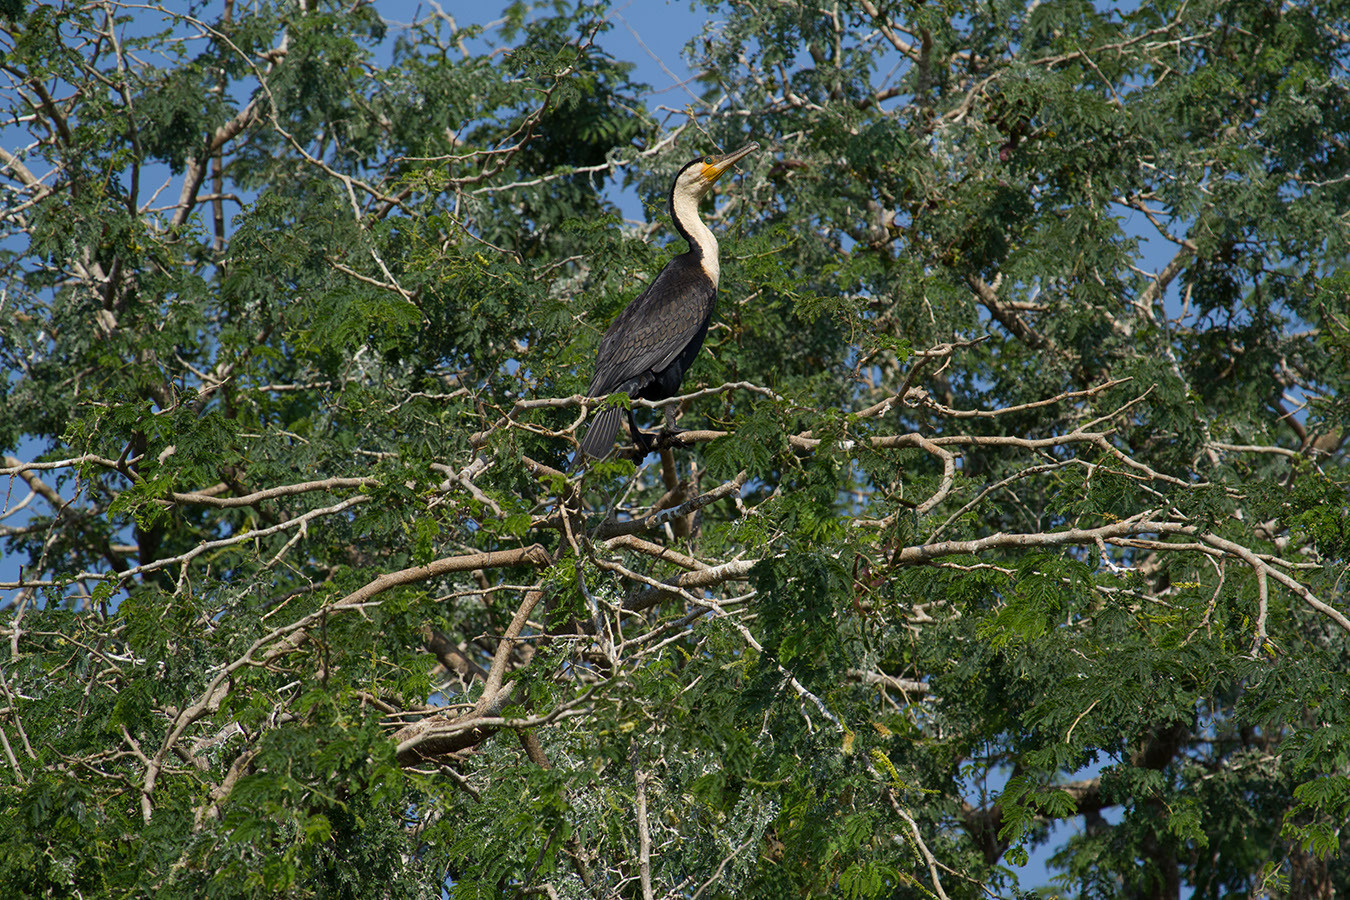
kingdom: Animalia
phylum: Chordata
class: Aves
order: Suliformes
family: Phalacrocoracidae
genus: Phalacrocorax
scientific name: Phalacrocorax carbo
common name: Great cormorant
